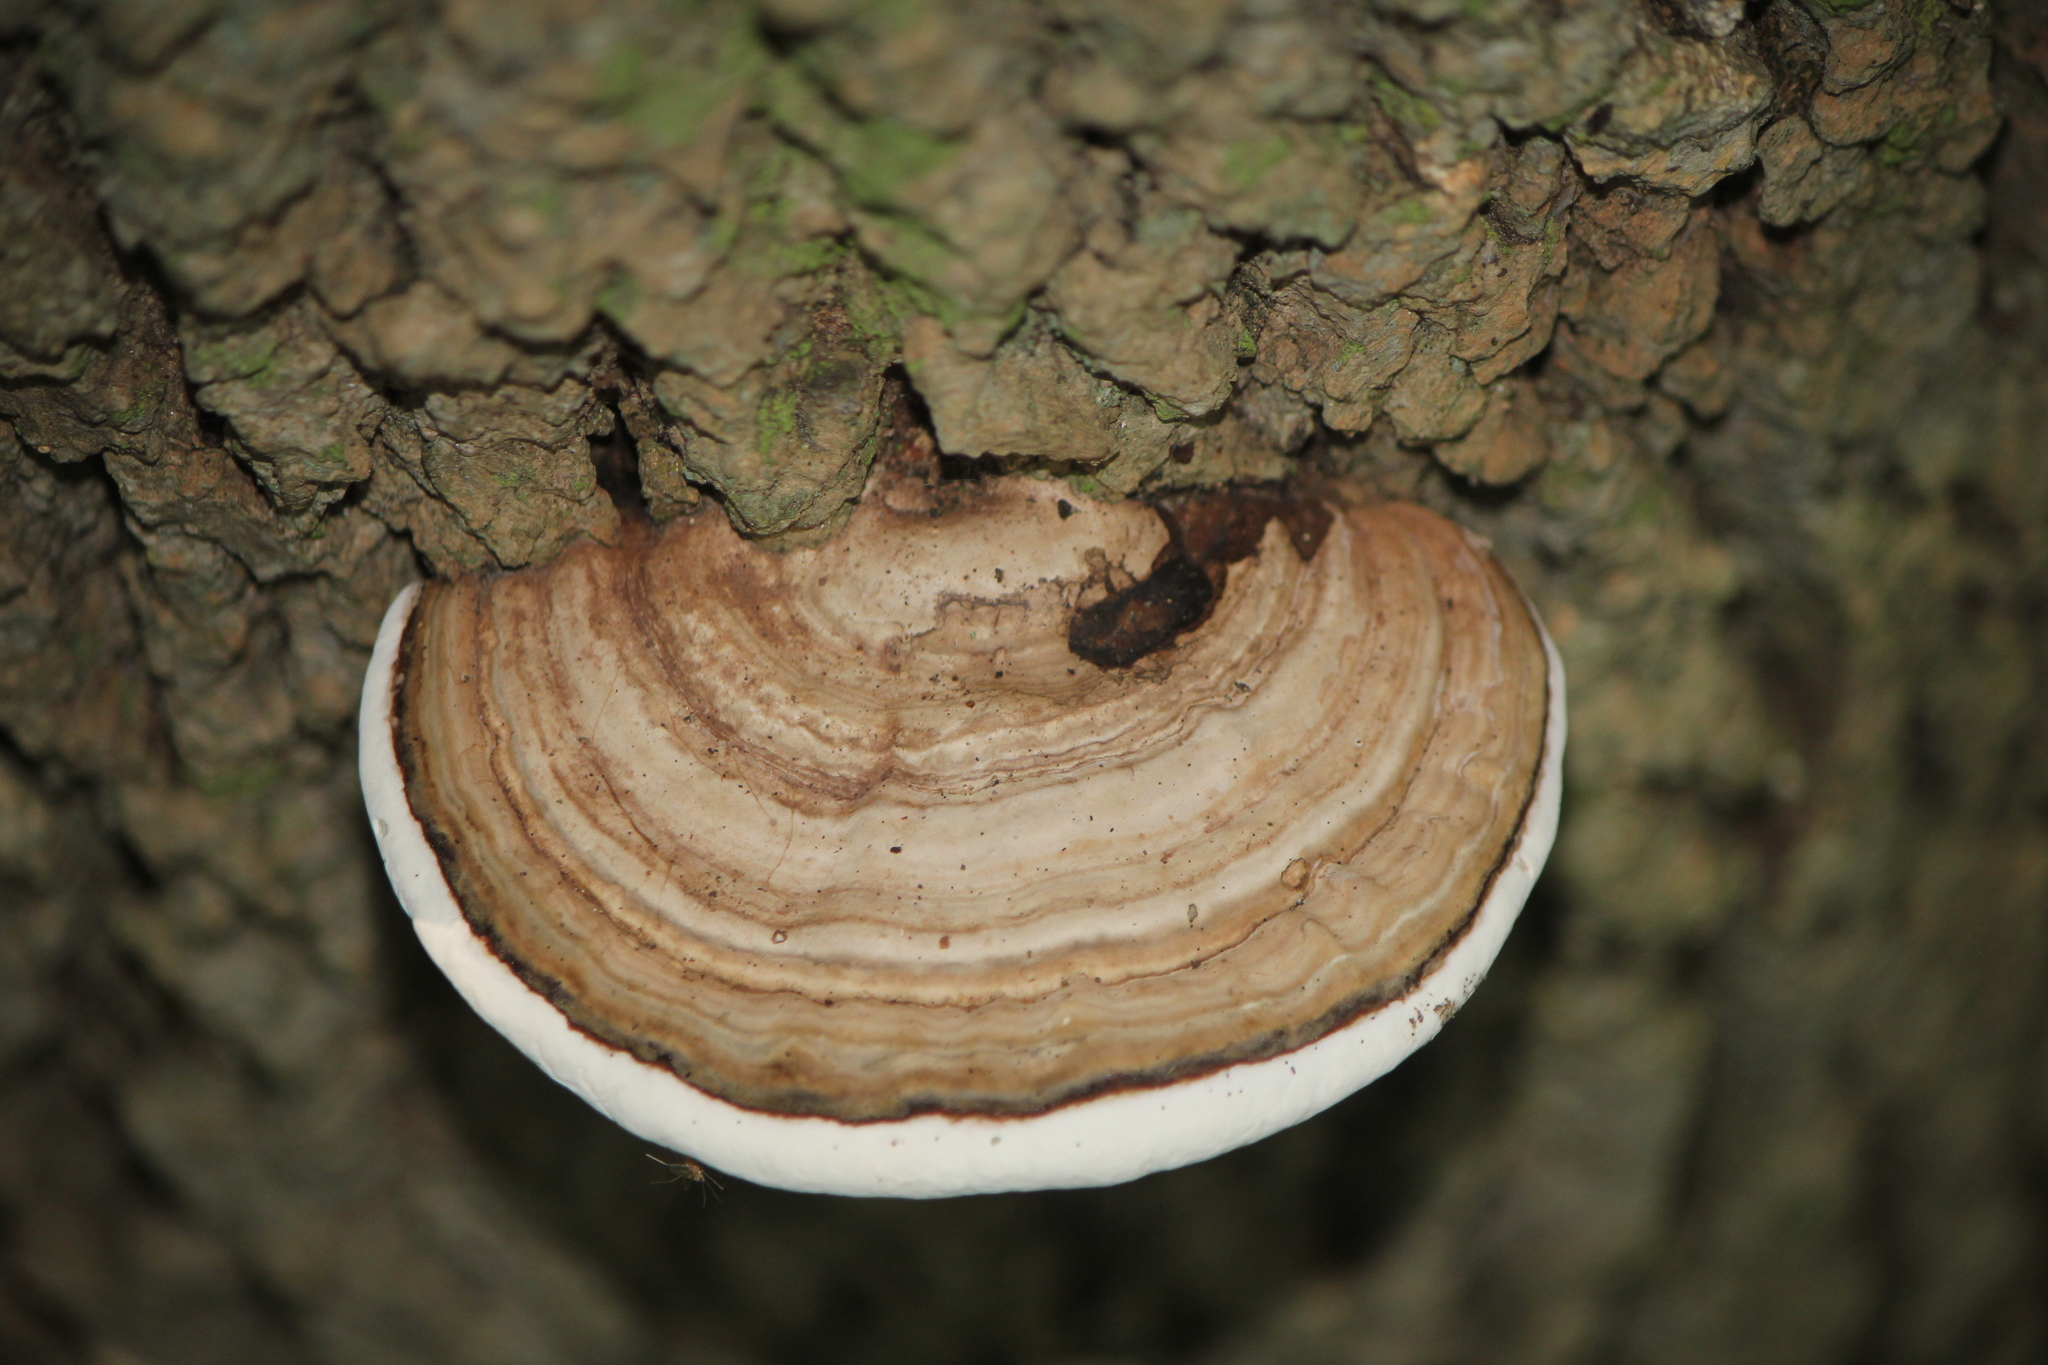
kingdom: Fungi
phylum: Basidiomycota
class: Agaricomycetes
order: Polyporales
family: Polyporaceae
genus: Ganoderma
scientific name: Ganoderma applanatum
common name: Artist's bracket
